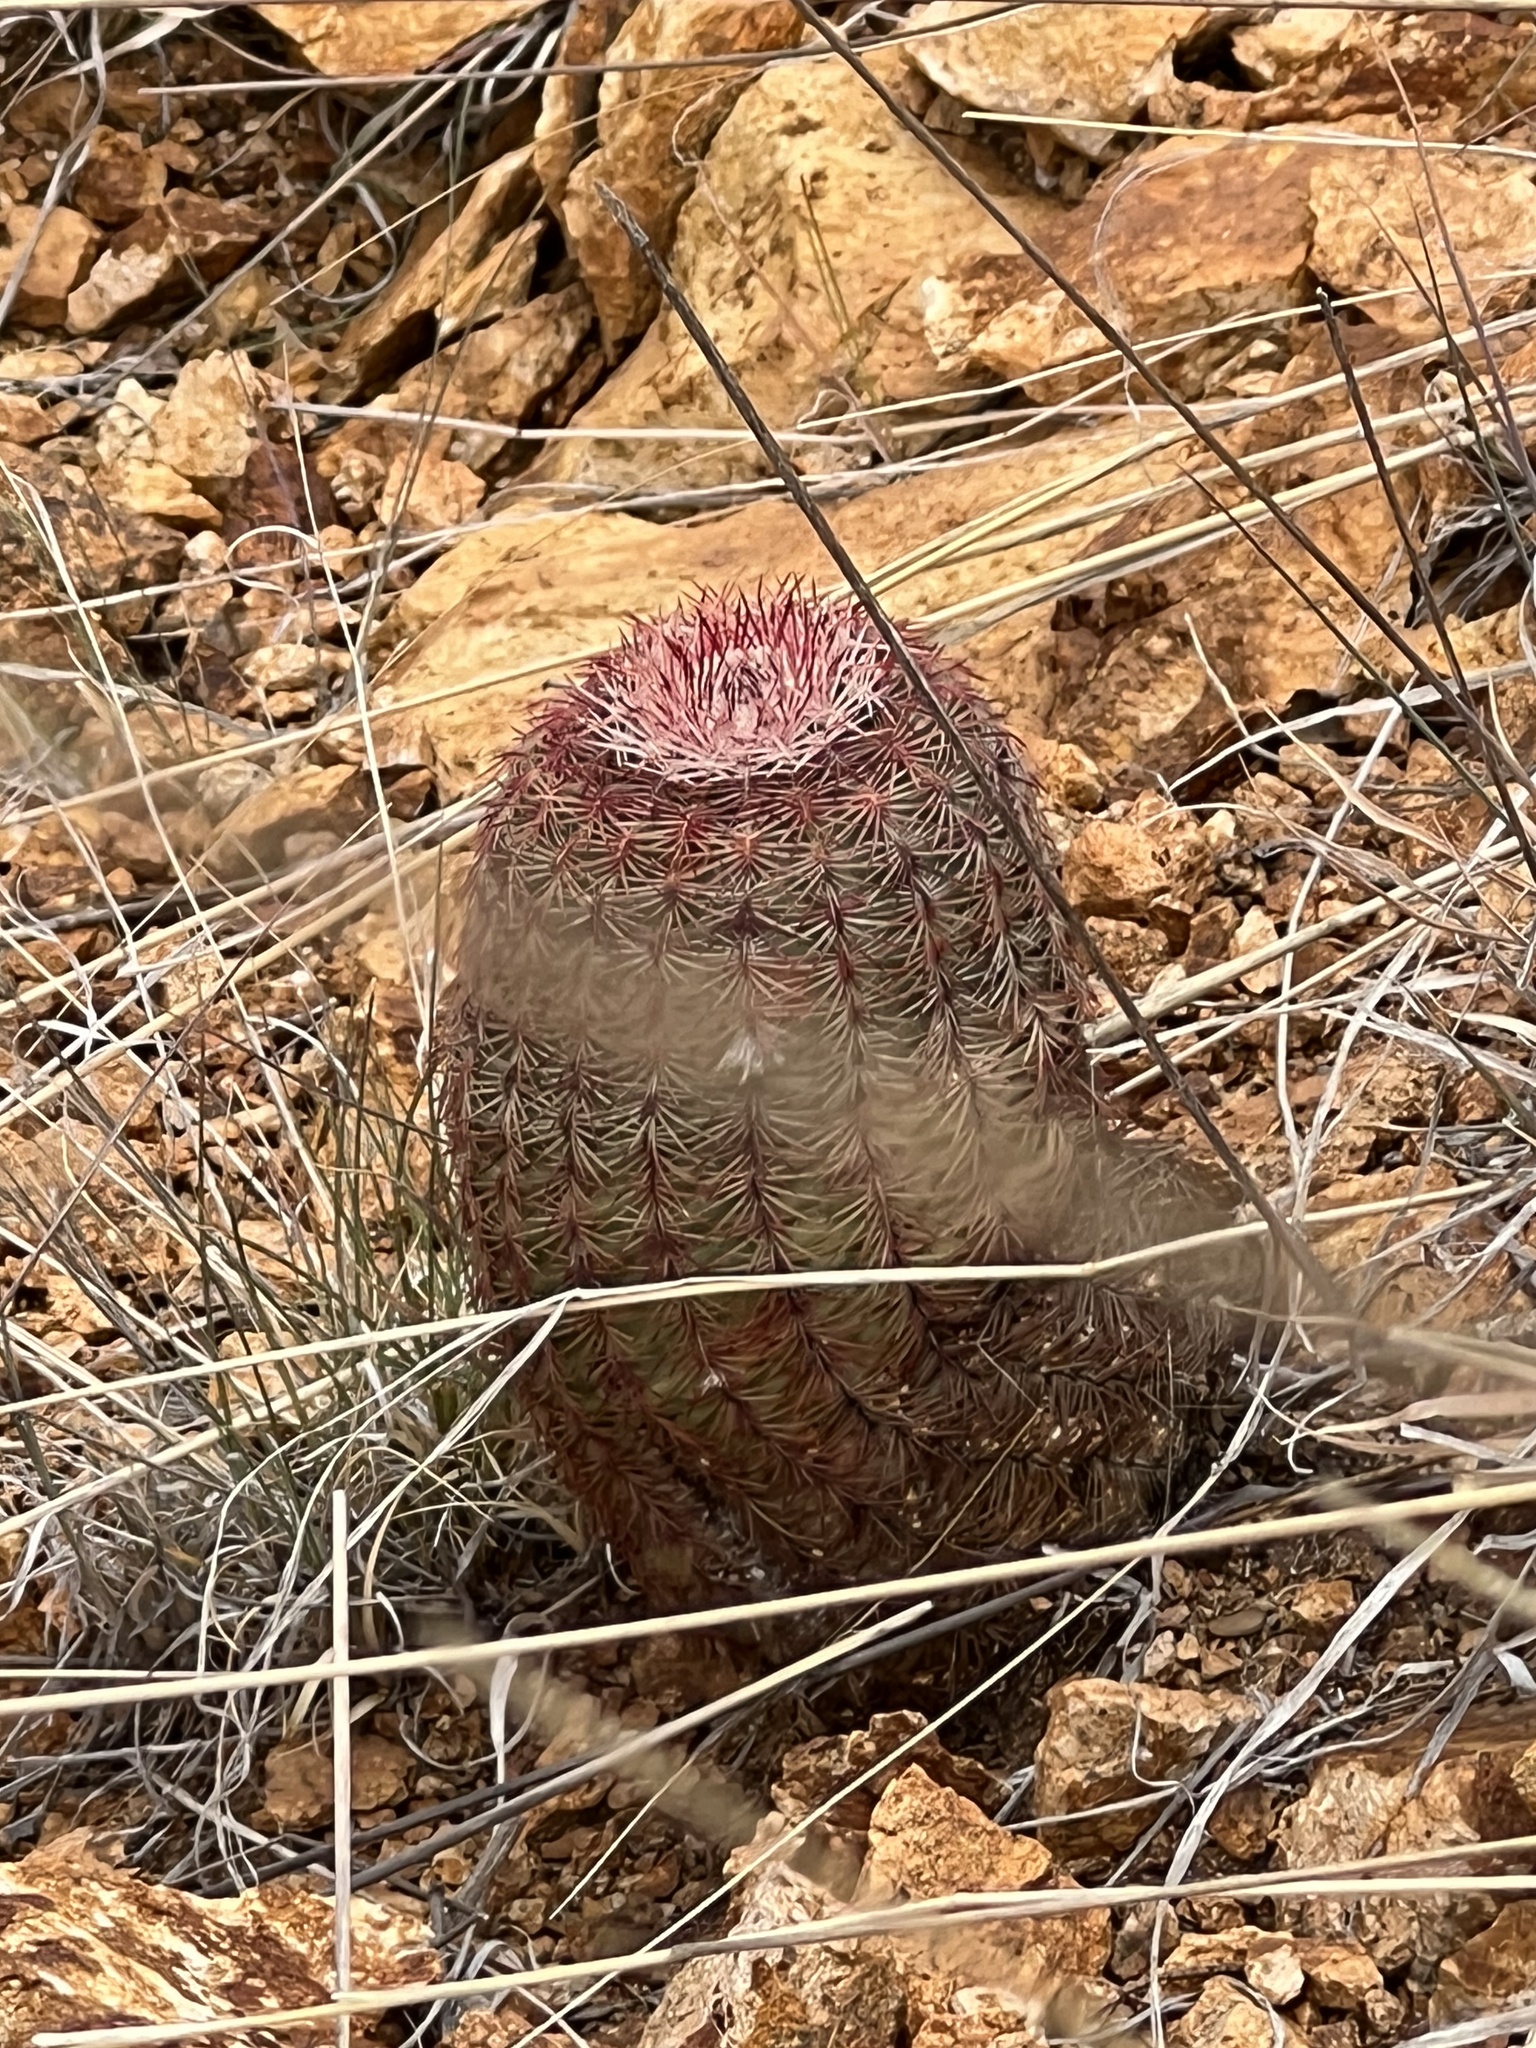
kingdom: Plantae
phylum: Tracheophyta
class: Magnoliopsida
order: Caryophyllales
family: Cactaceae
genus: Echinocereus
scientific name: Echinocereus rigidissimus
